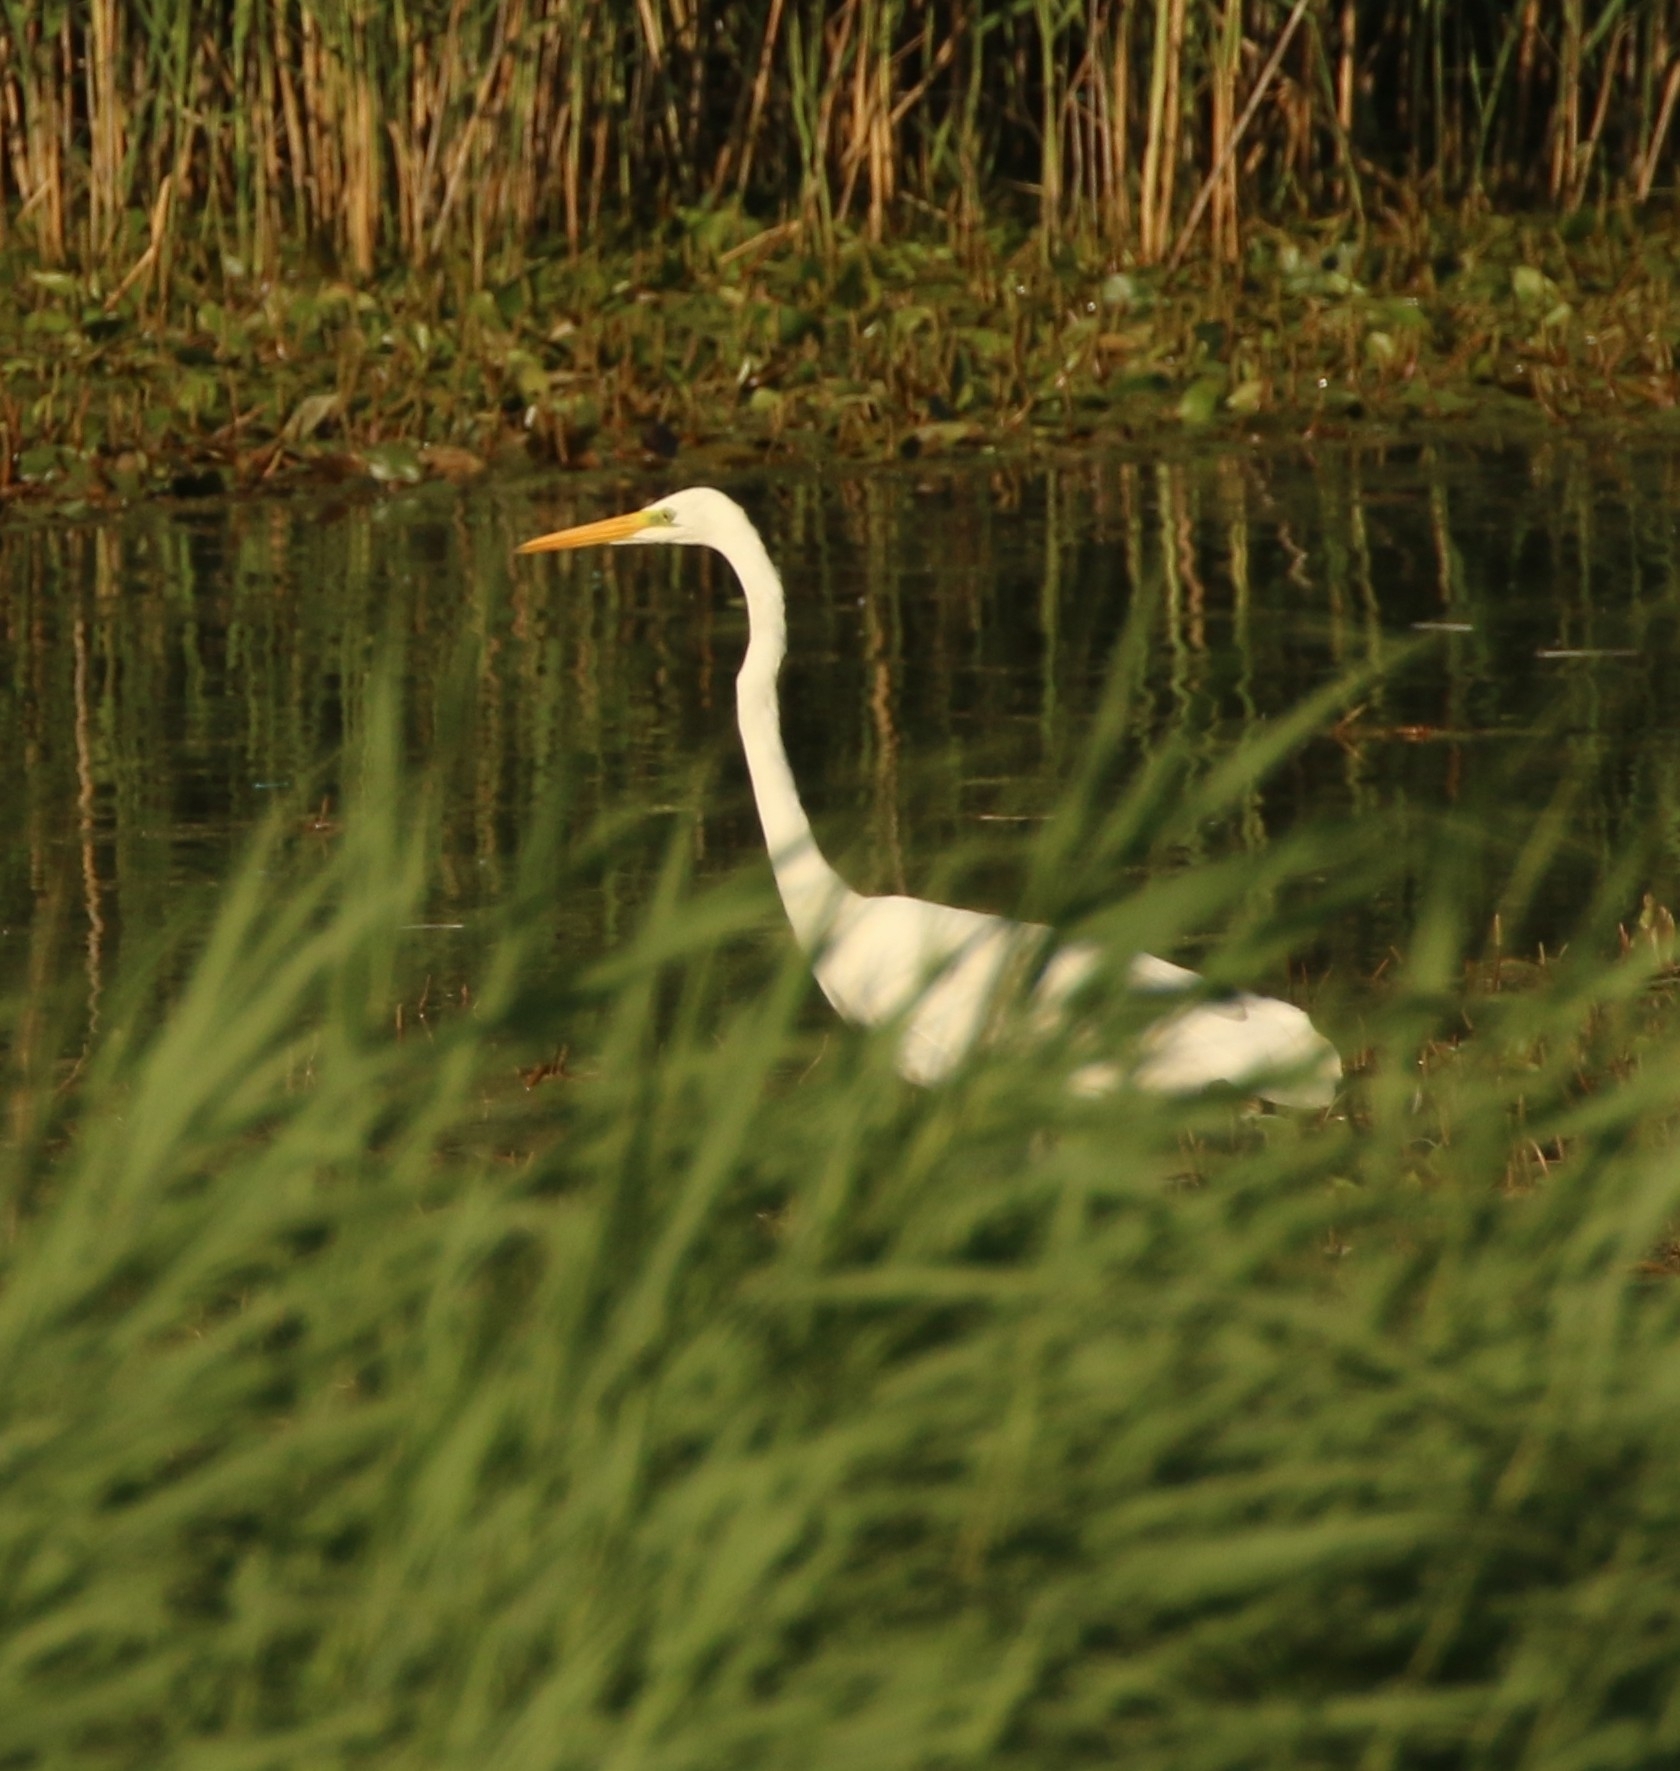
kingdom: Animalia
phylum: Chordata
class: Aves
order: Pelecaniformes
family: Ardeidae
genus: Ardea
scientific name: Ardea alba
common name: Great egret
